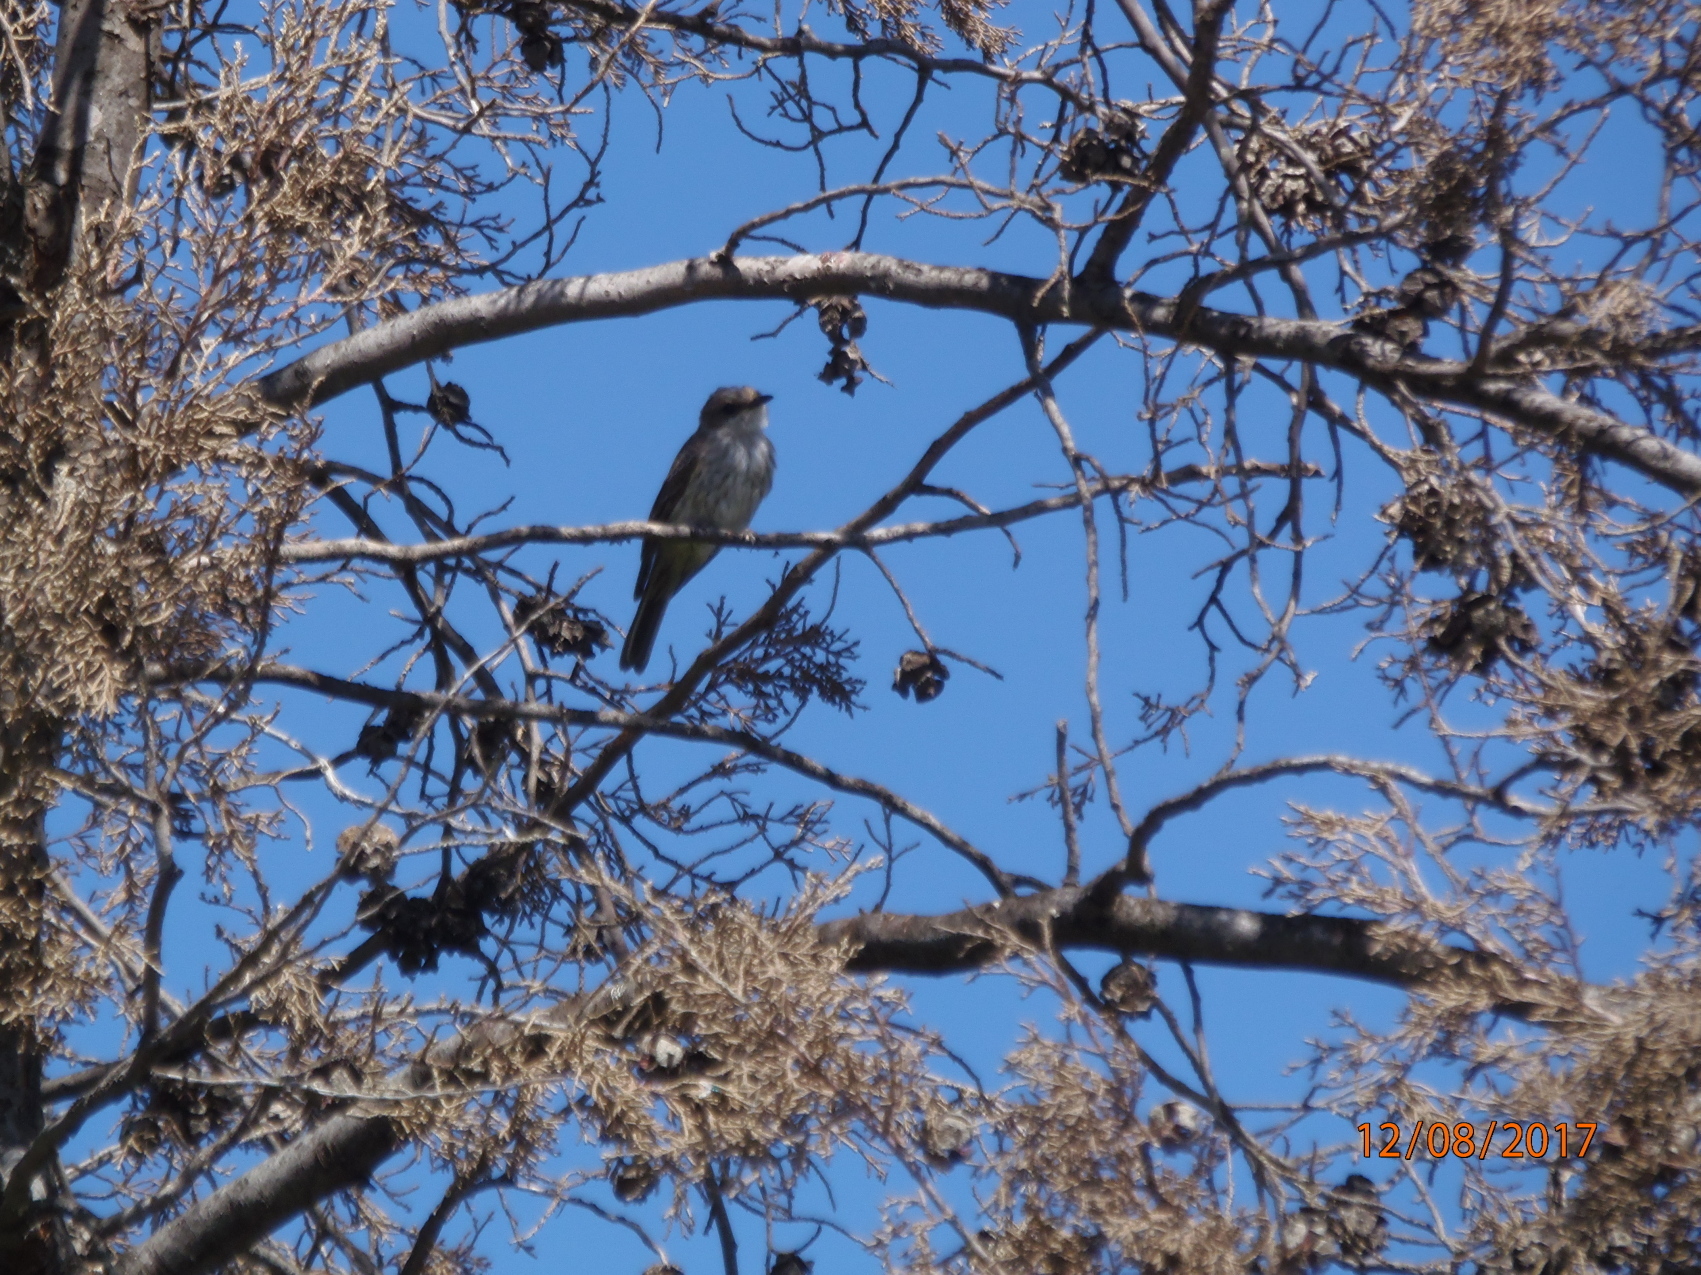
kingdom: Animalia
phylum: Chordata
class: Aves
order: Passeriformes
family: Tyrannidae
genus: Pyrocephalus
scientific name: Pyrocephalus rubinus
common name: Vermilion flycatcher
